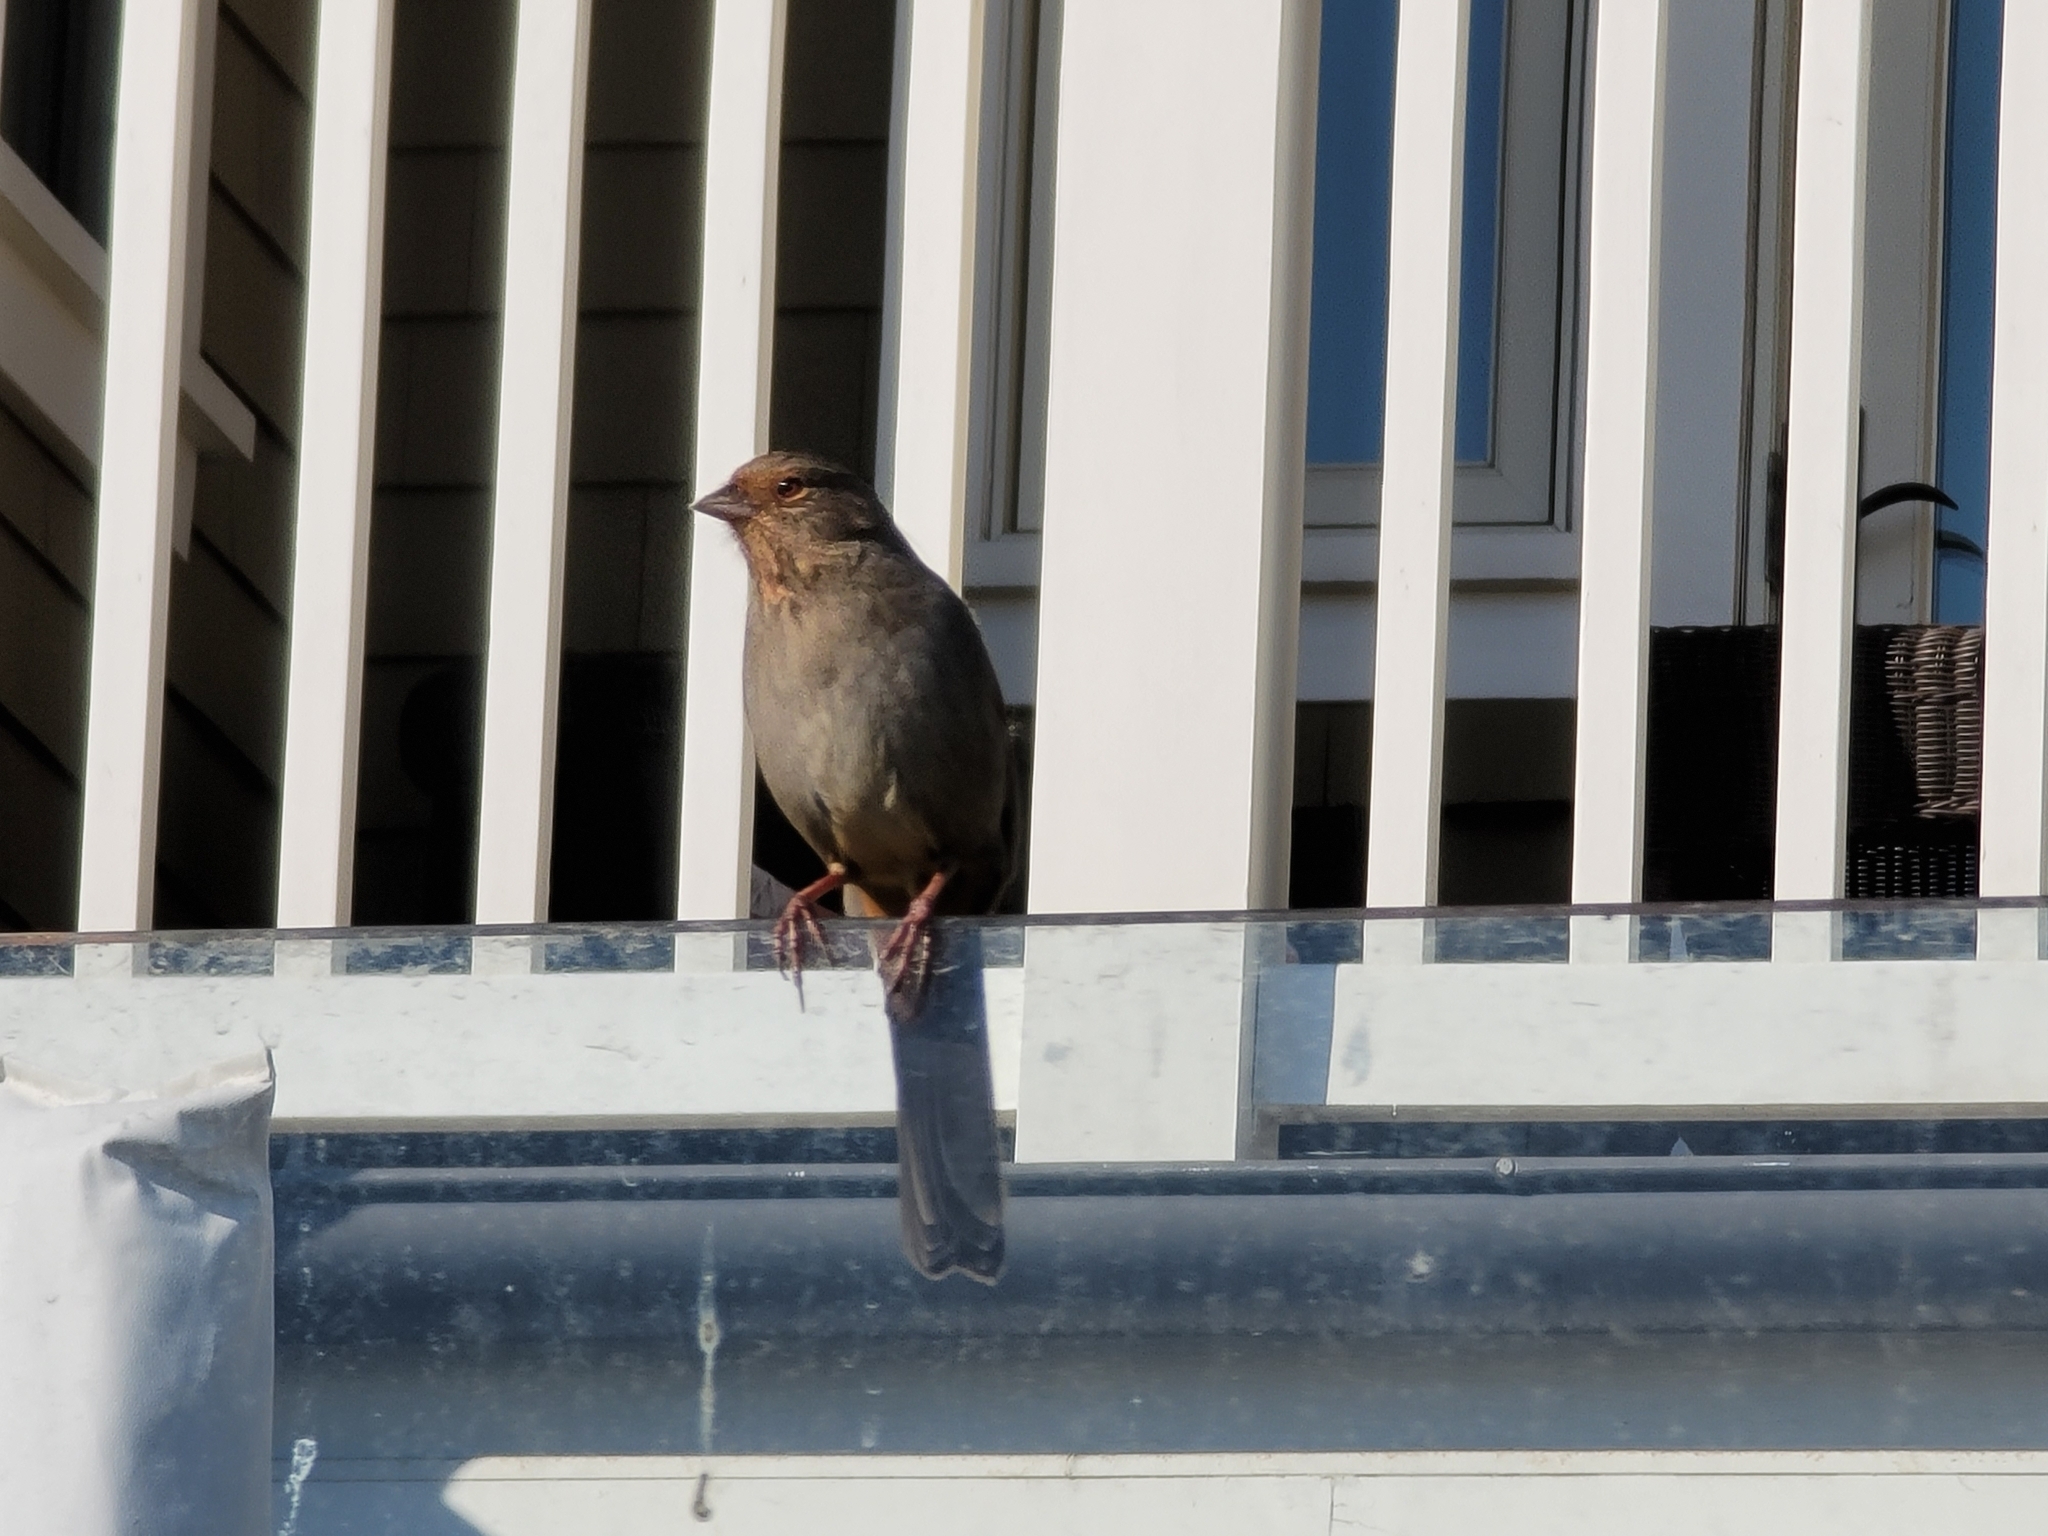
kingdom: Animalia
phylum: Chordata
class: Aves
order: Passeriformes
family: Passerellidae
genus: Melozone
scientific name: Melozone crissalis
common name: California towhee
